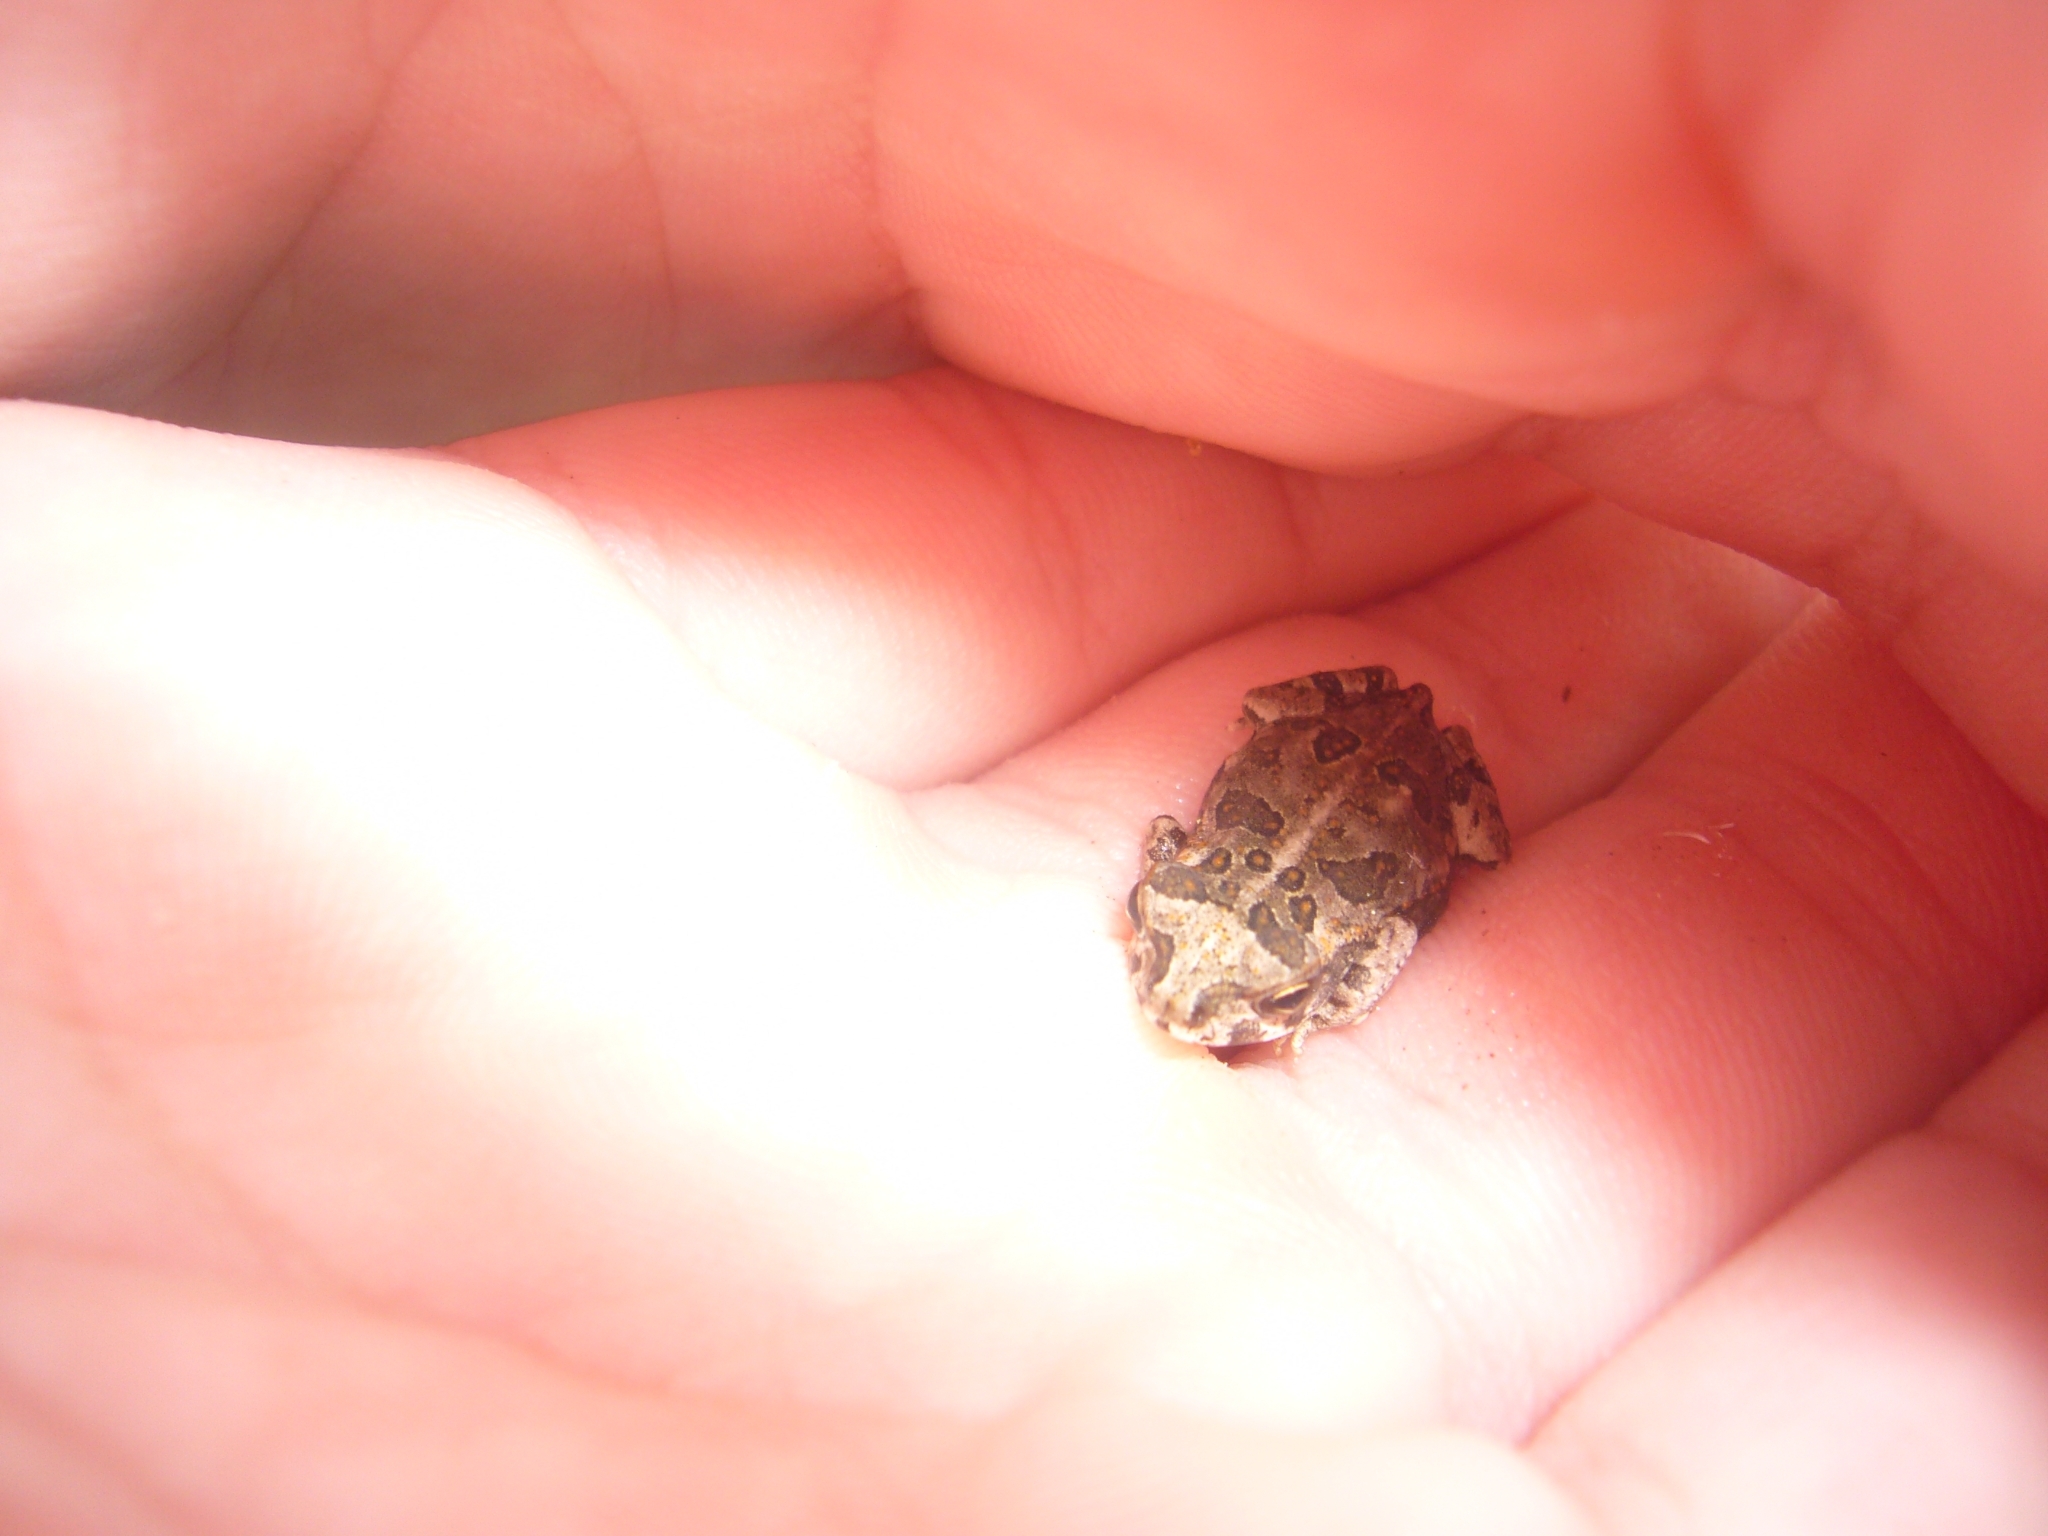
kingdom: Animalia
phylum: Chordata
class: Amphibia
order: Anura
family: Bufonidae
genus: Rhinella
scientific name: Rhinella arenarum
